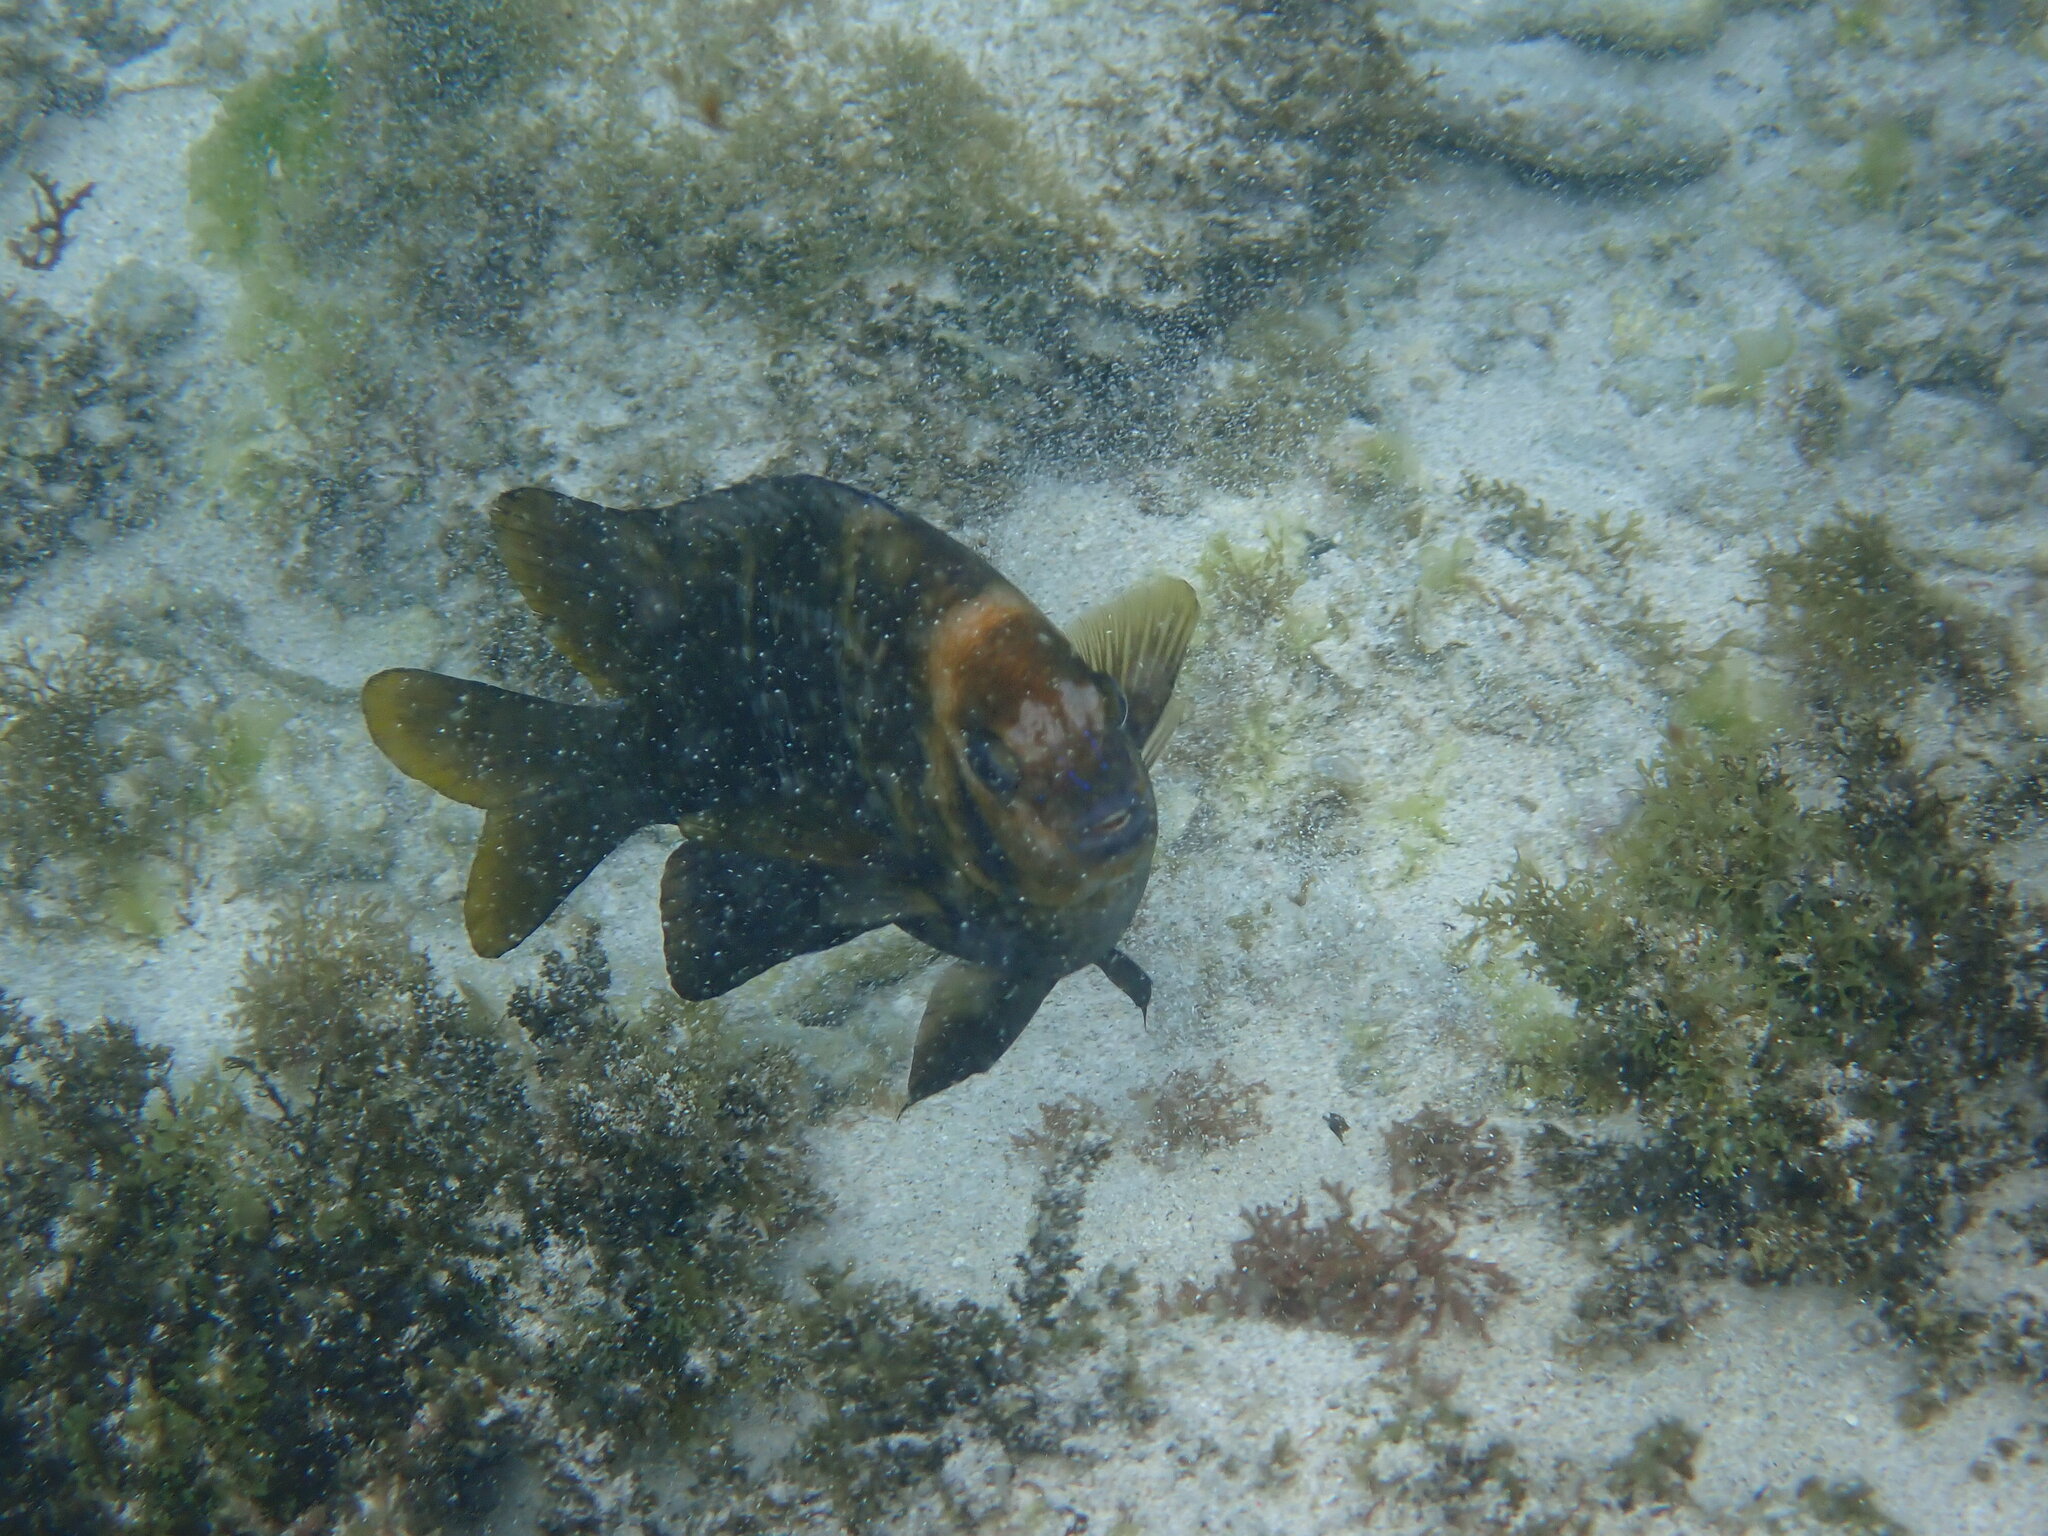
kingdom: Animalia
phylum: Chordata
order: Perciformes
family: Pomacentridae
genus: Parma
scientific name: Parma polylepis
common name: Banded parma
